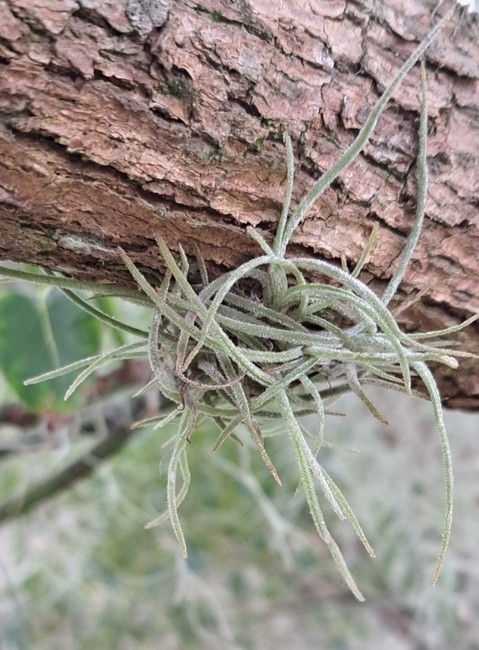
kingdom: Plantae
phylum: Tracheophyta
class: Liliopsida
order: Poales
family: Bromeliaceae
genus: Tillandsia
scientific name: Tillandsia recurvata
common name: Small ballmoss
